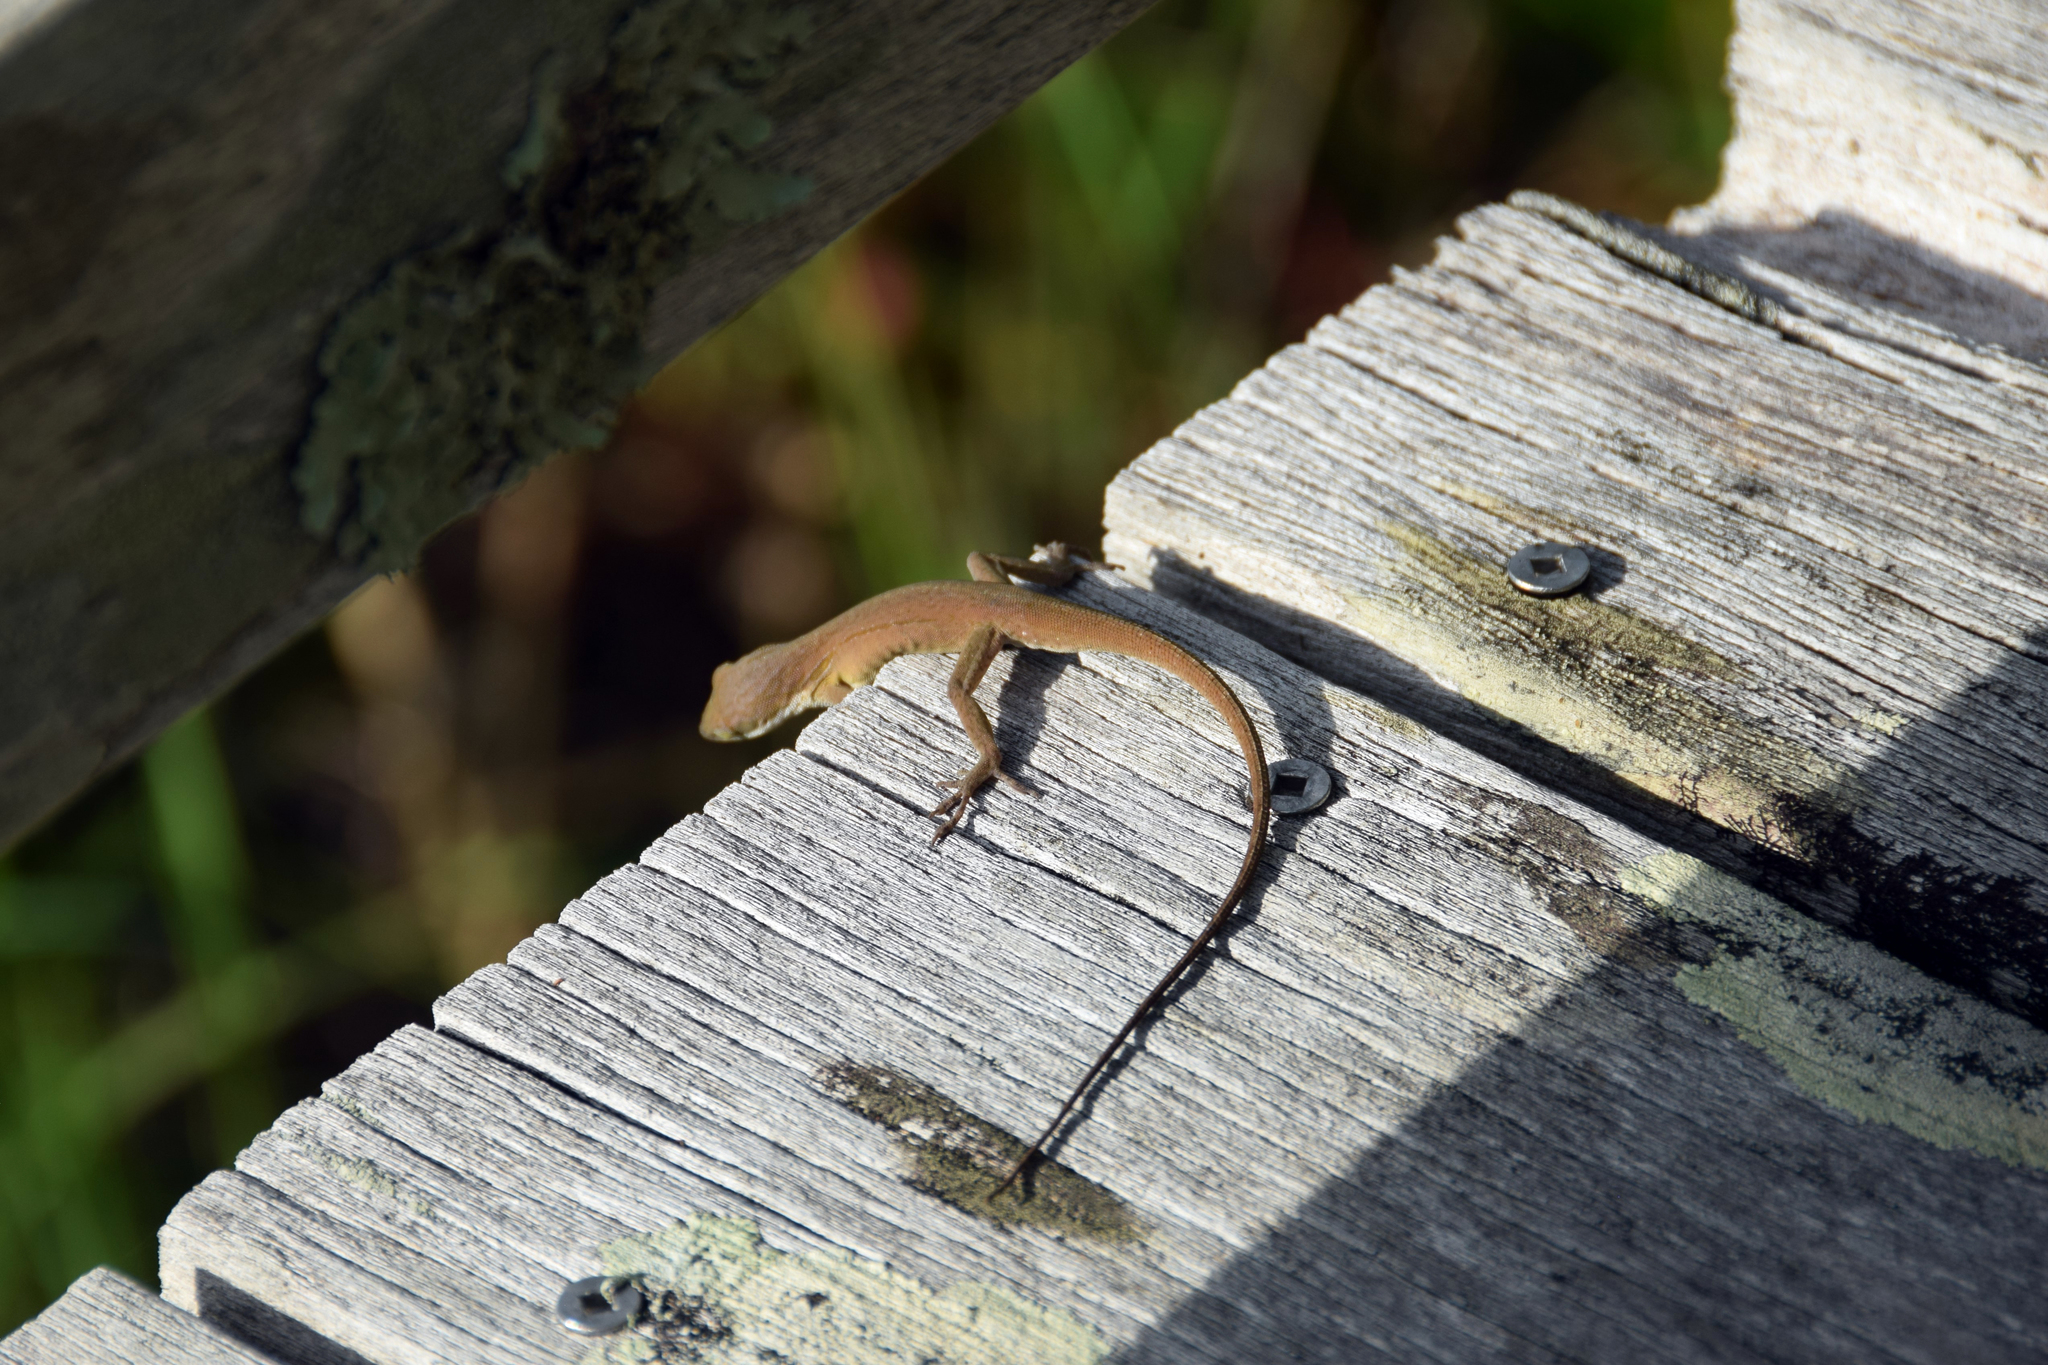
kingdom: Animalia
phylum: Chordata
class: Squamata
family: Dactyloidae
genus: Anolis
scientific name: Anolis carolinensis
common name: Green anole
